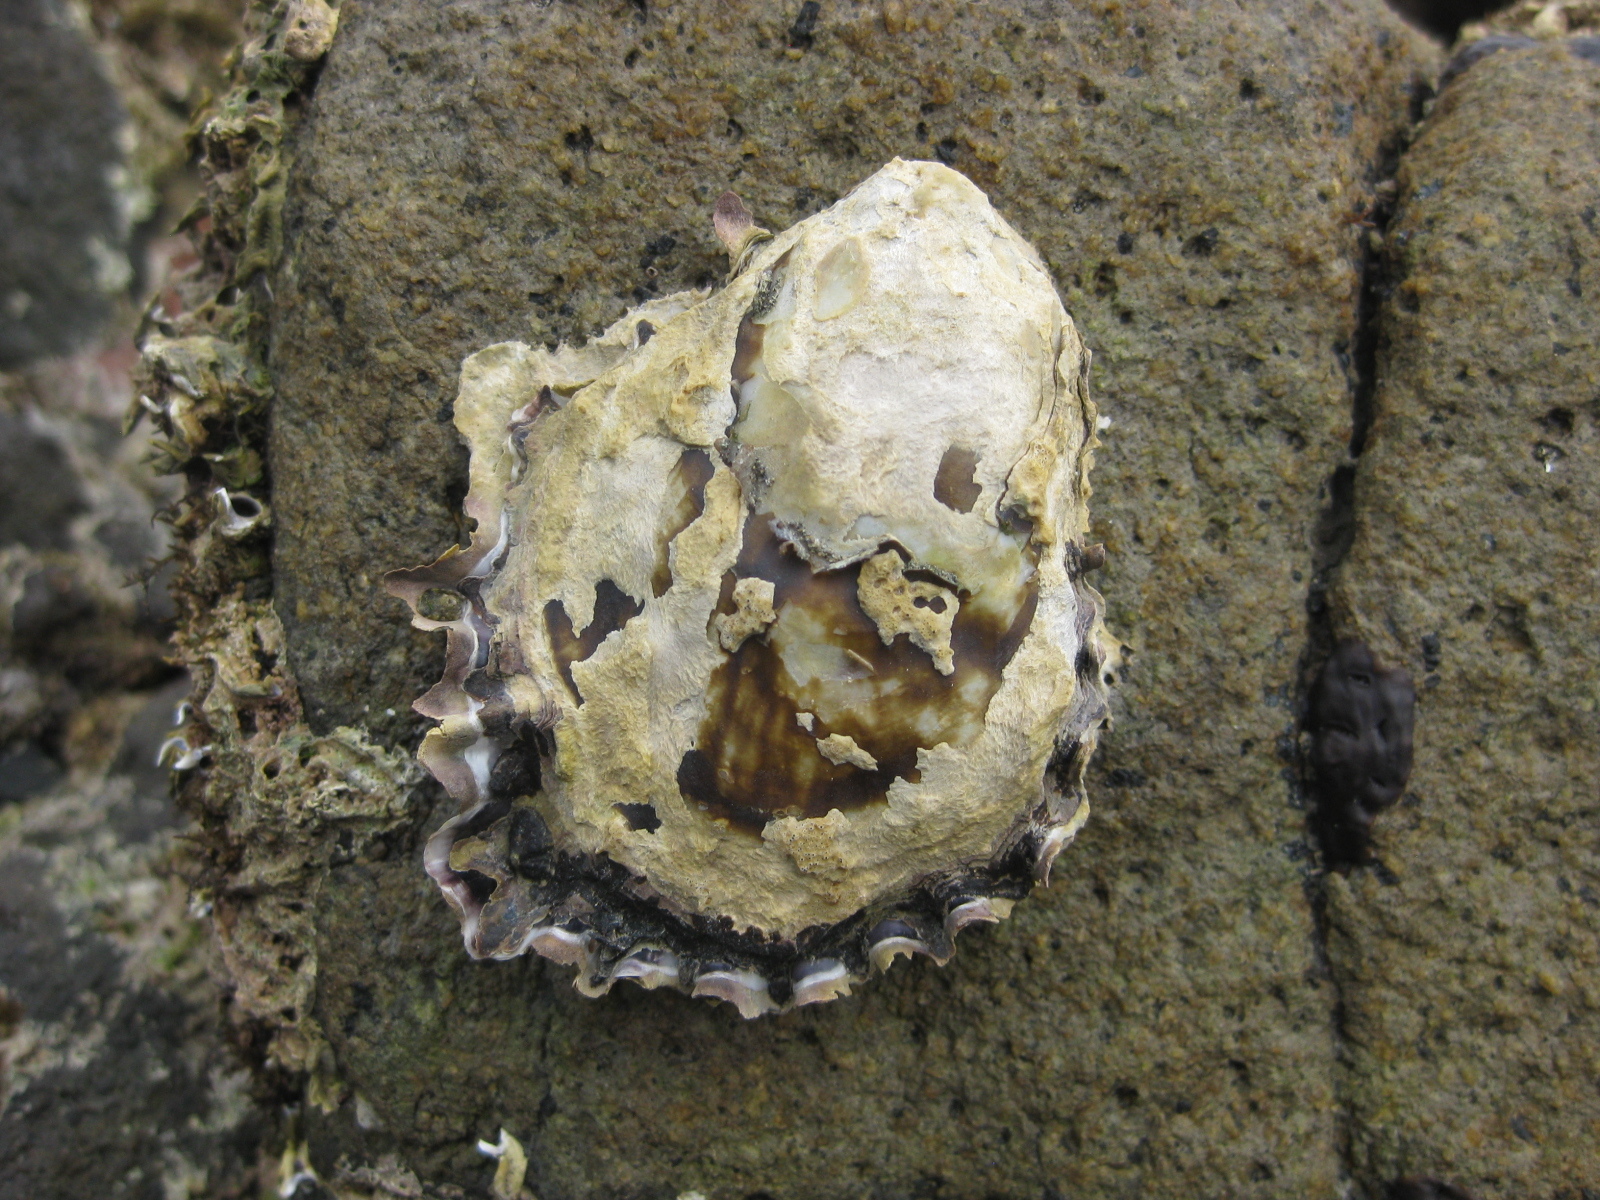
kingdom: Animalia
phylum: Mollusca
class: Bivalvia
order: Ostreida
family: Ostreidae
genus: Saccostrea
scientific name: Saccostrea glomerata
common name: Sydney cupped oyster
